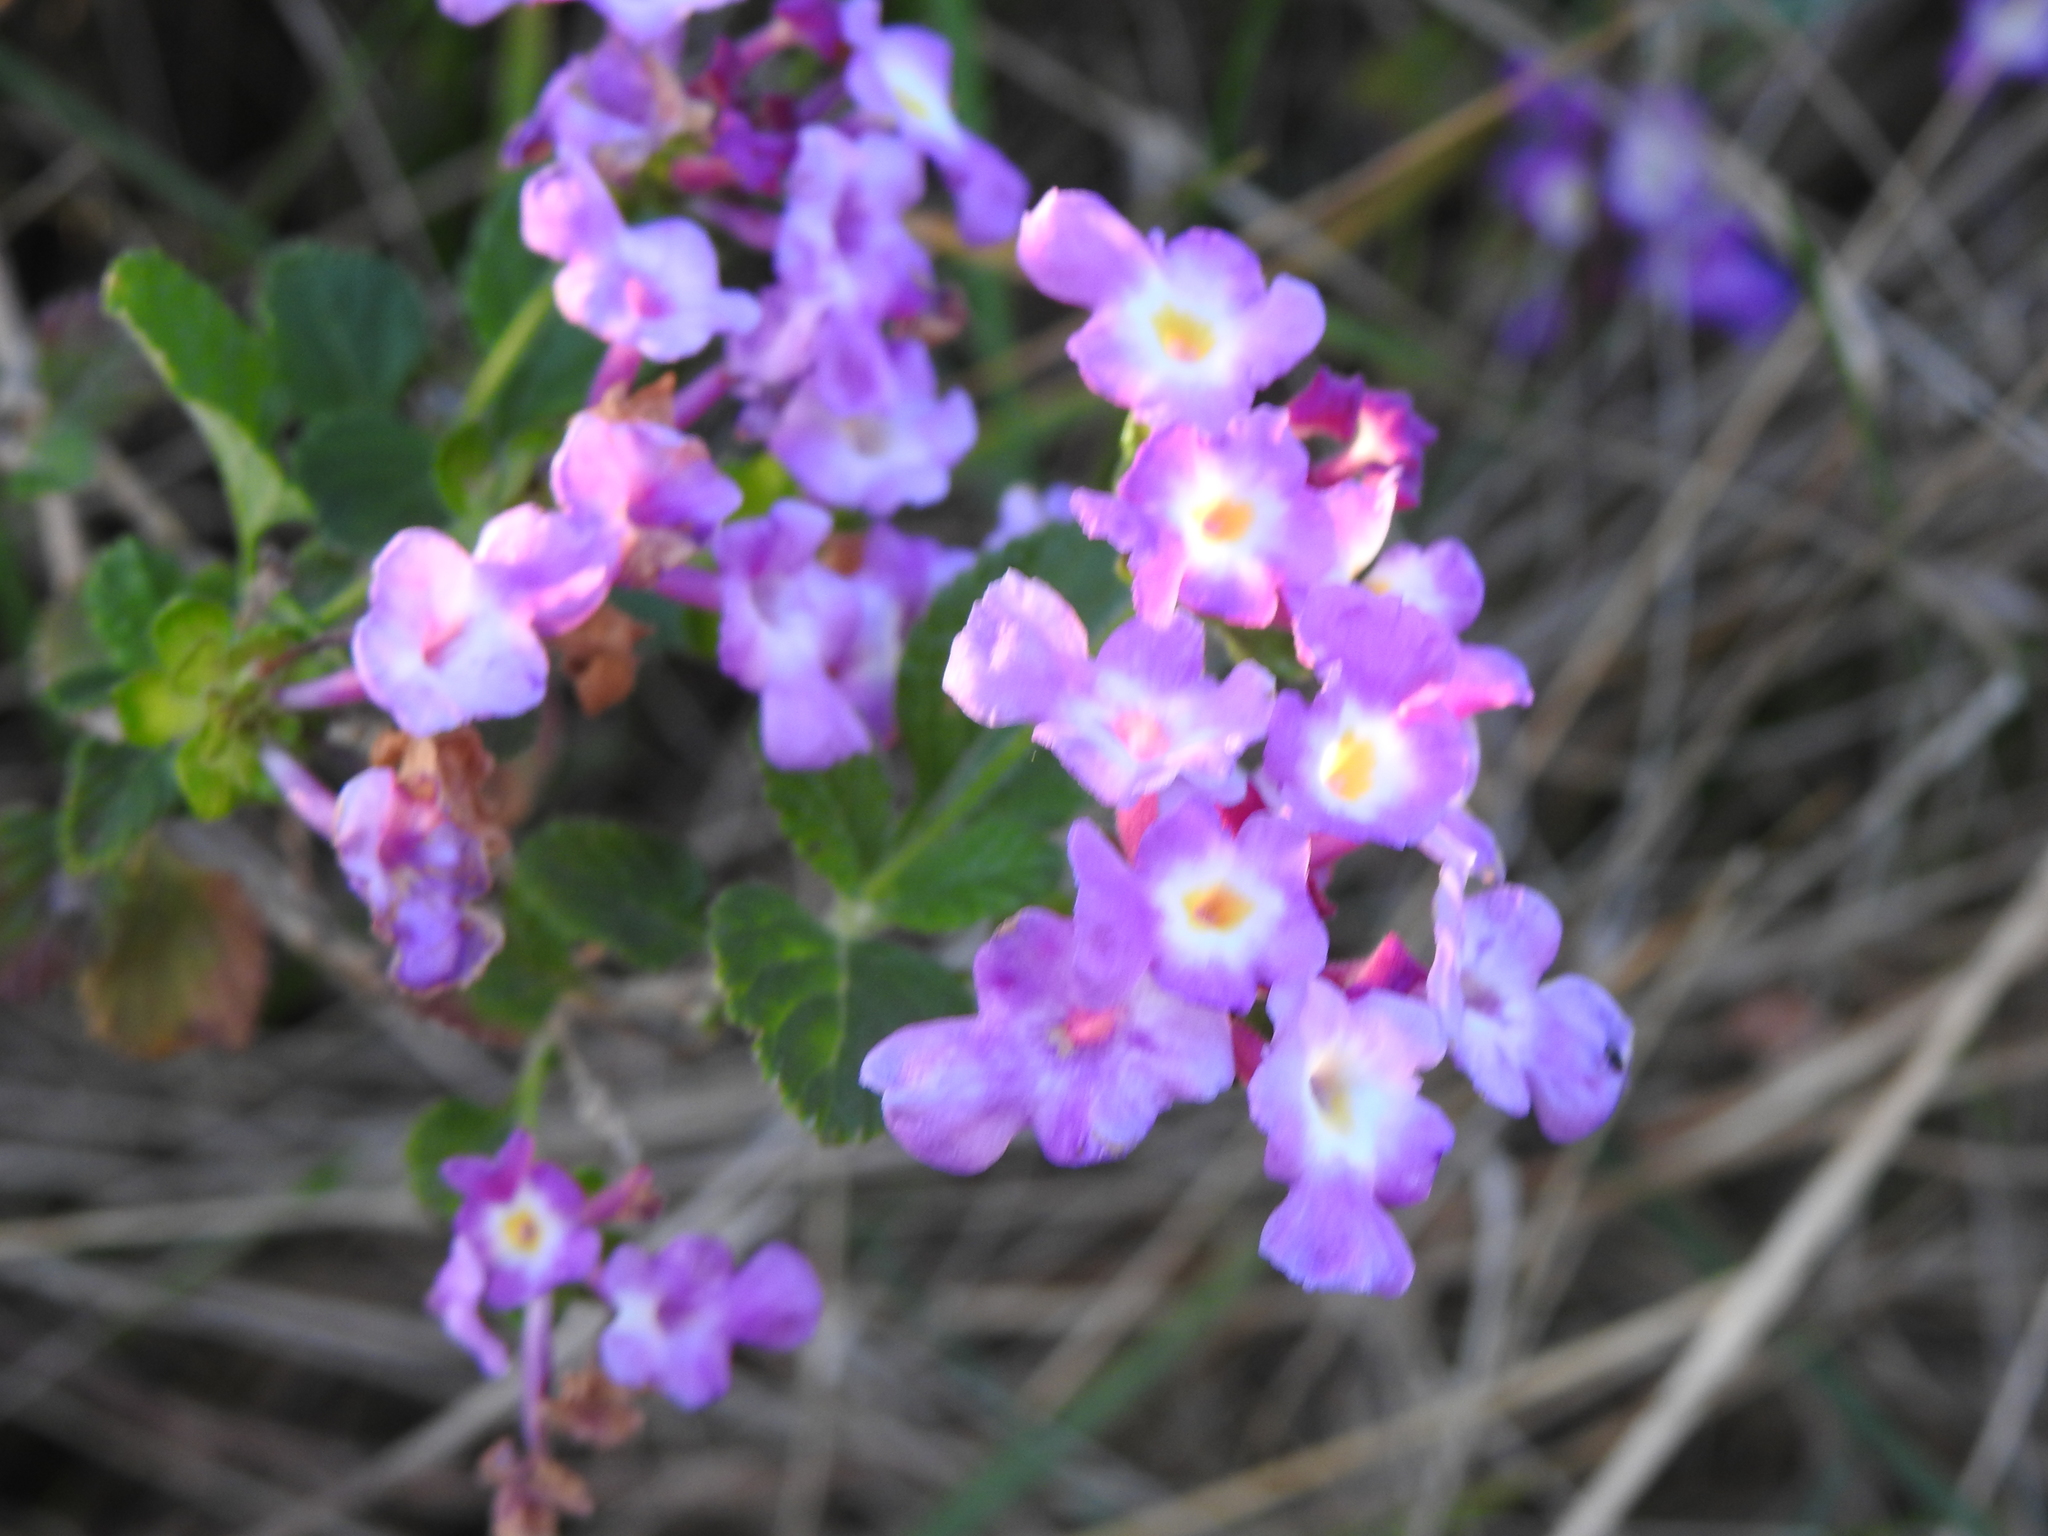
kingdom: Plantae
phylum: Tracheophyta
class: Magnoliopsida
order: Lamiales
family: Verbenaceae
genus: Lantana
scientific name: Lantana montevidensis
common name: Trailing shrubverbena
